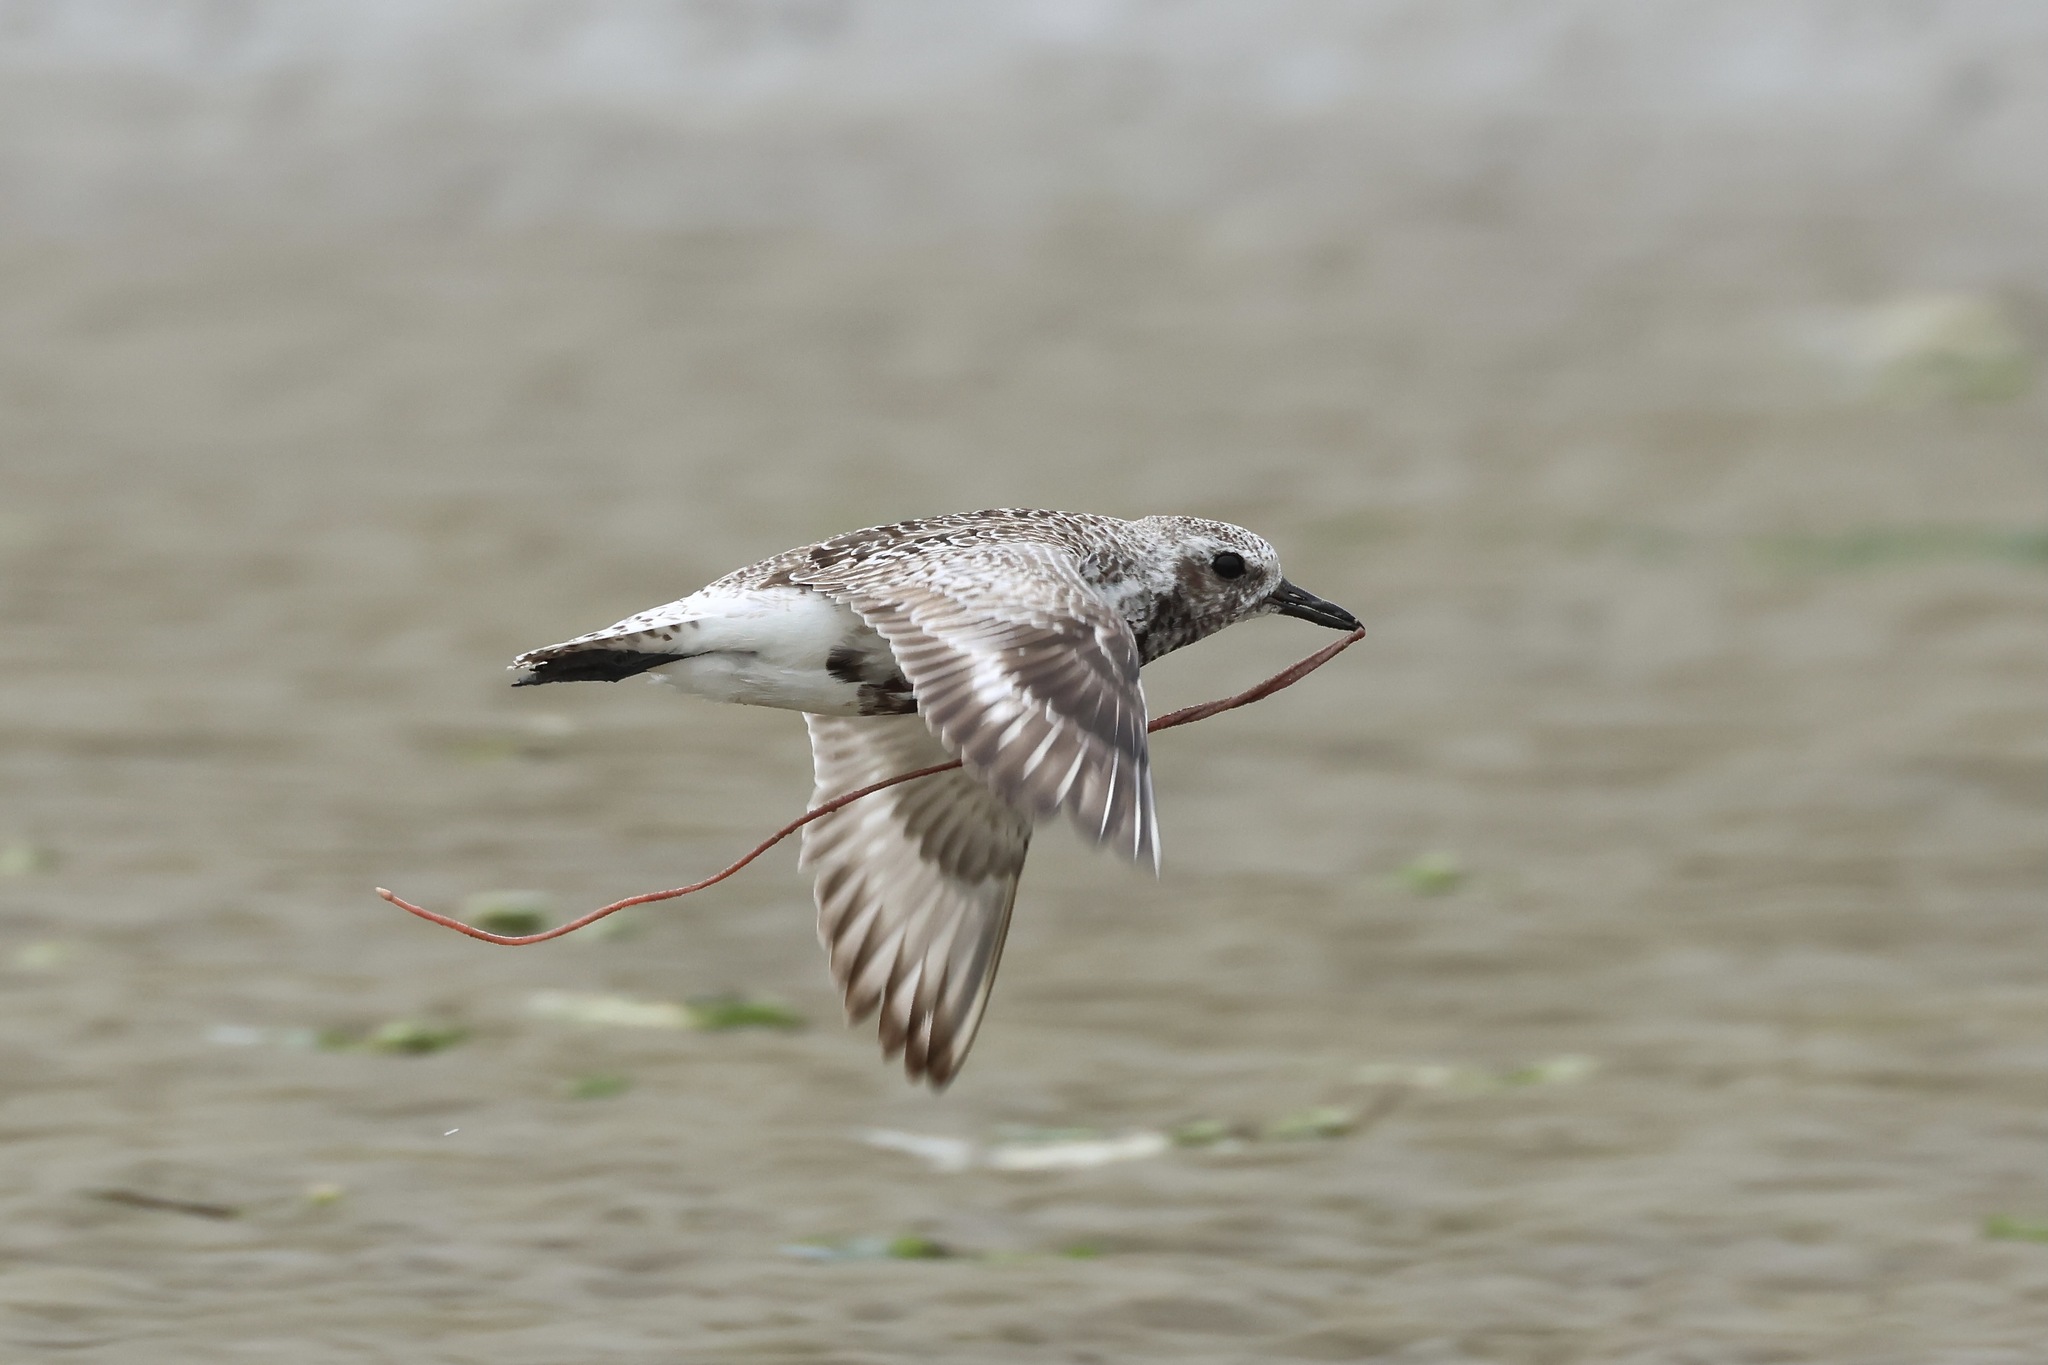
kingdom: Animalia
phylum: Chordata
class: Aves
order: Charadriiformes
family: Charadriidae
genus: Pluvialis
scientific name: Pluvialis squatarola
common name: Grey plover
